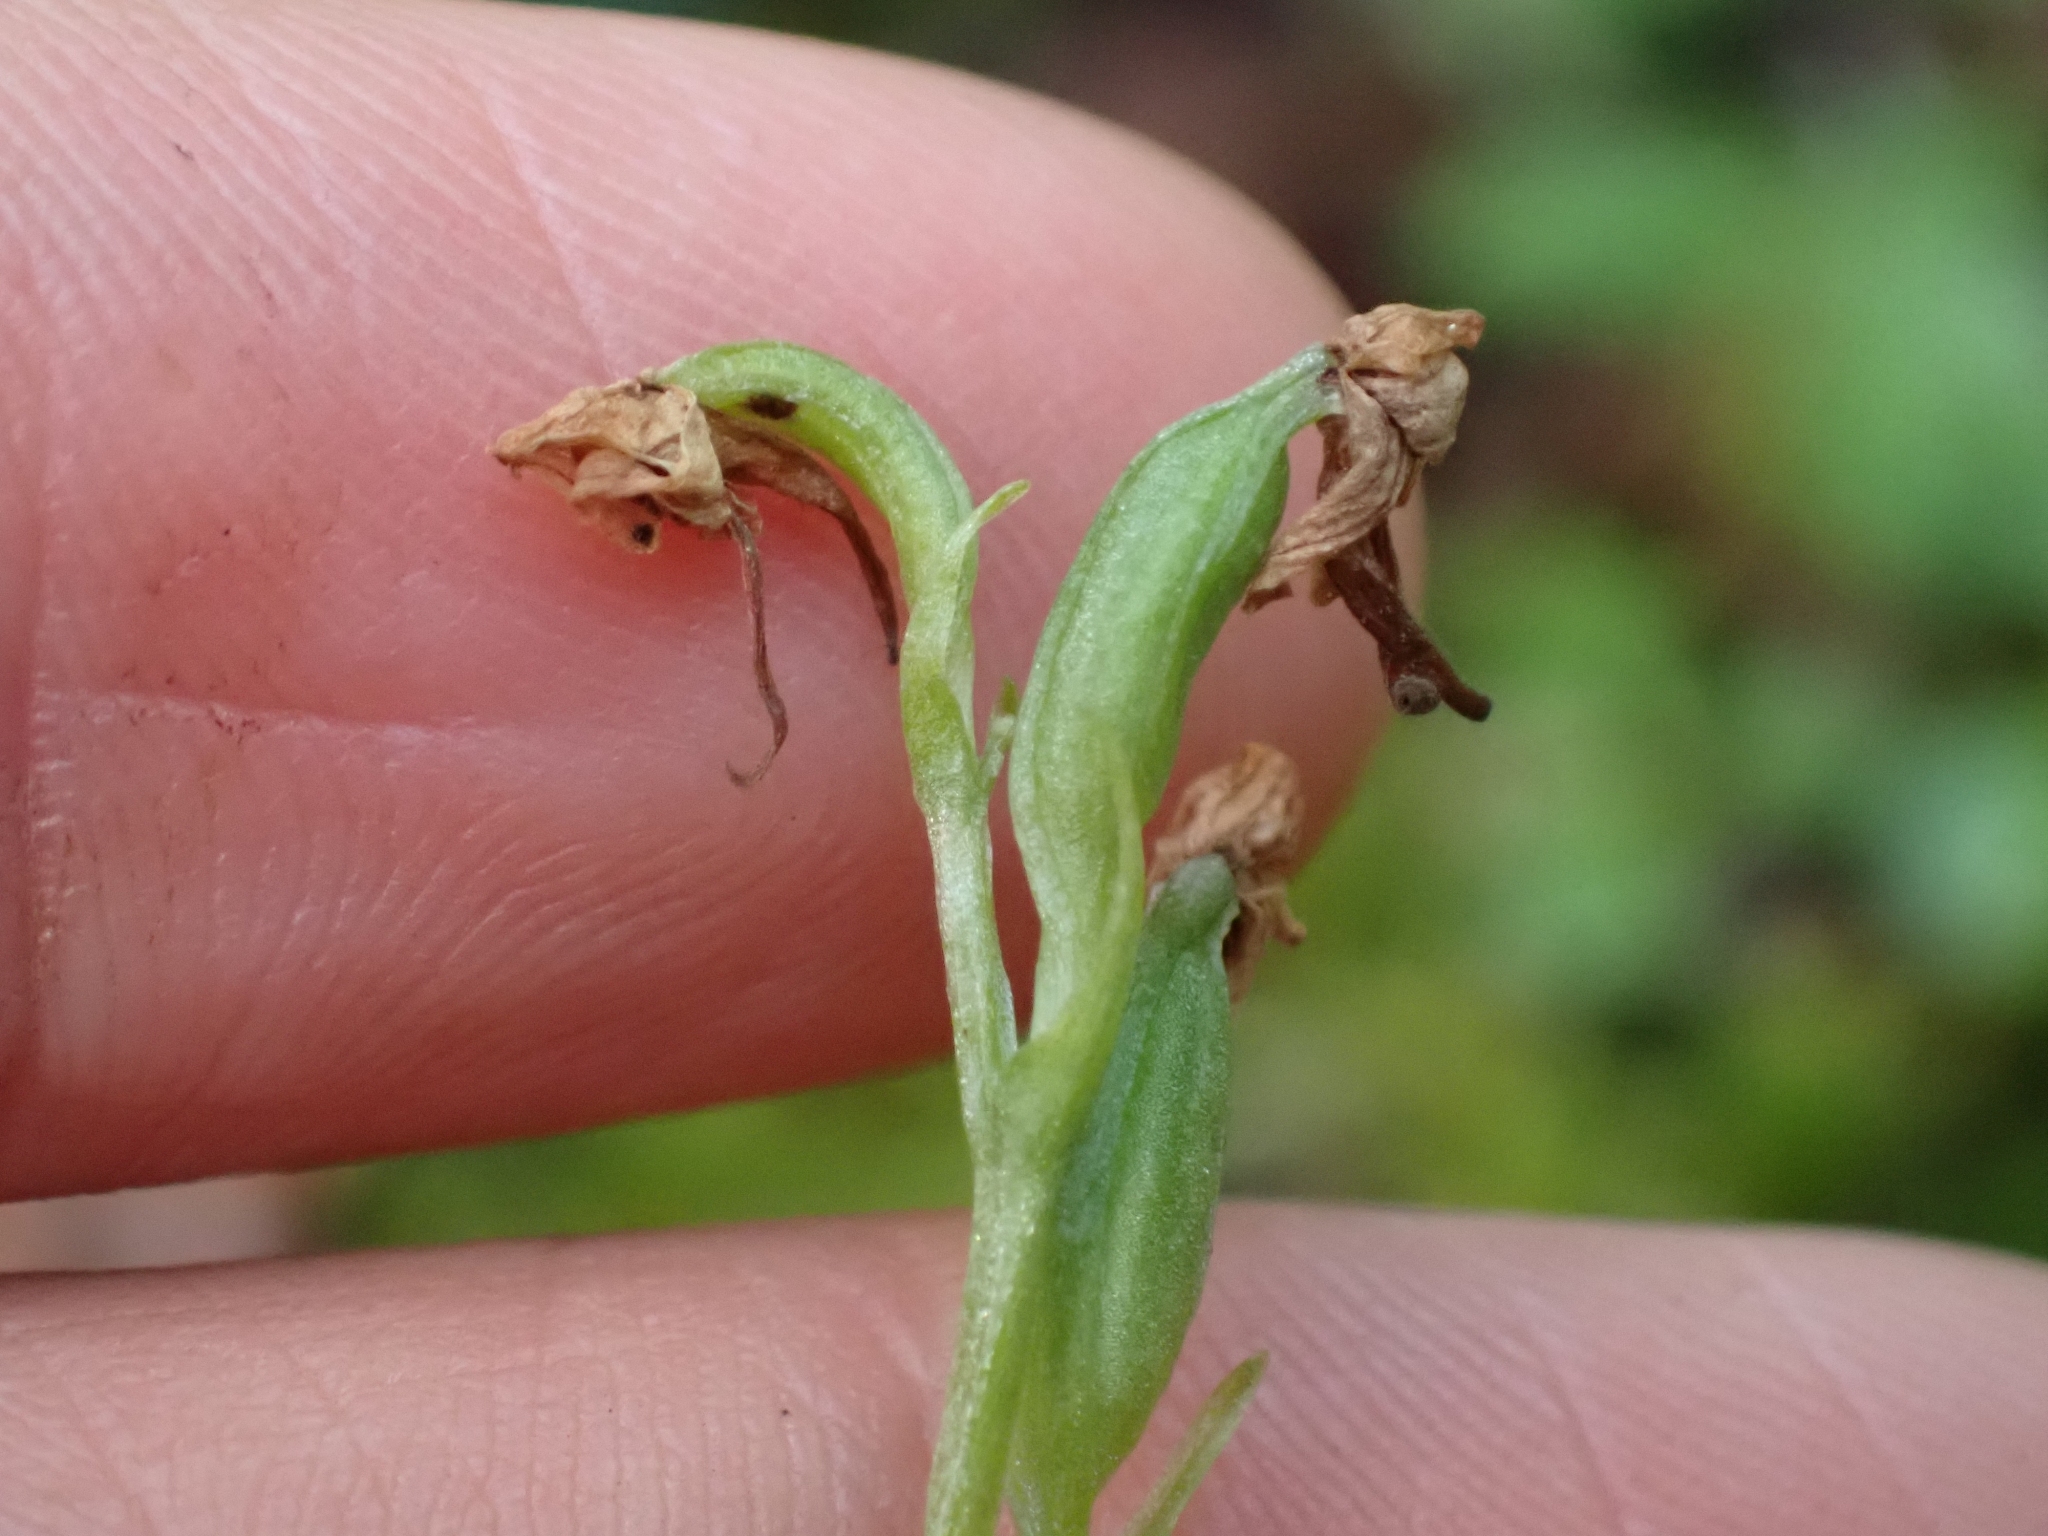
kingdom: Plantae
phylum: Tracheophyta
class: Liliopsida
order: Asparagales
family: Orchidaceae
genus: Platanthera
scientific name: Platanthera obtusata
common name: Blunt bog orchid
